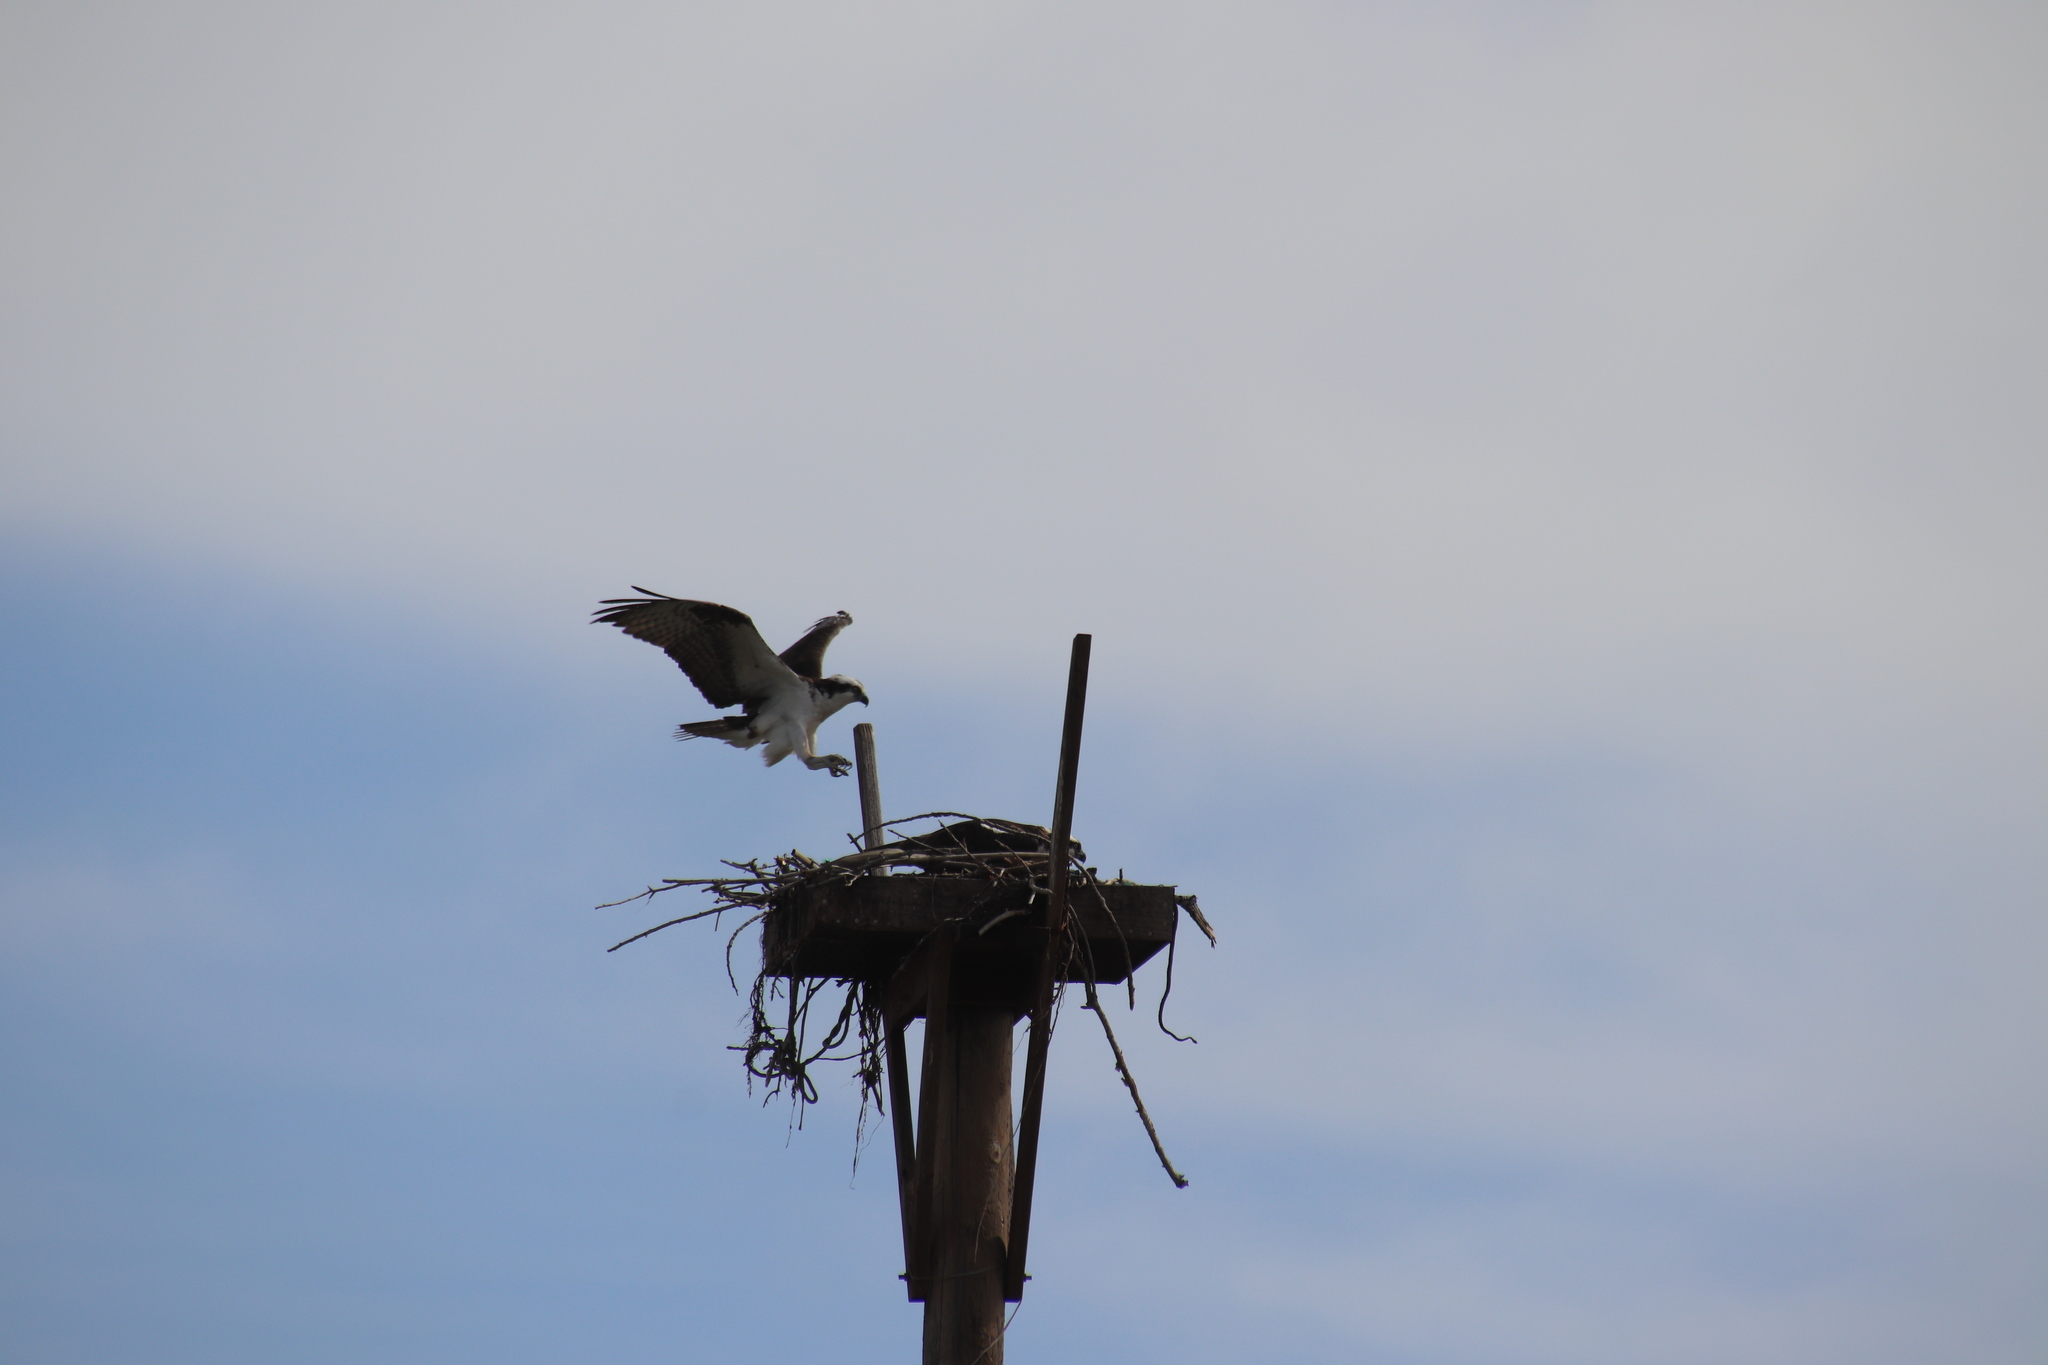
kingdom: Animalia
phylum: Chordata
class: Aves
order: Accipitriformes
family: Pandionidae
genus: Pandion
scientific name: Pandion haliaetus
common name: Osprey
